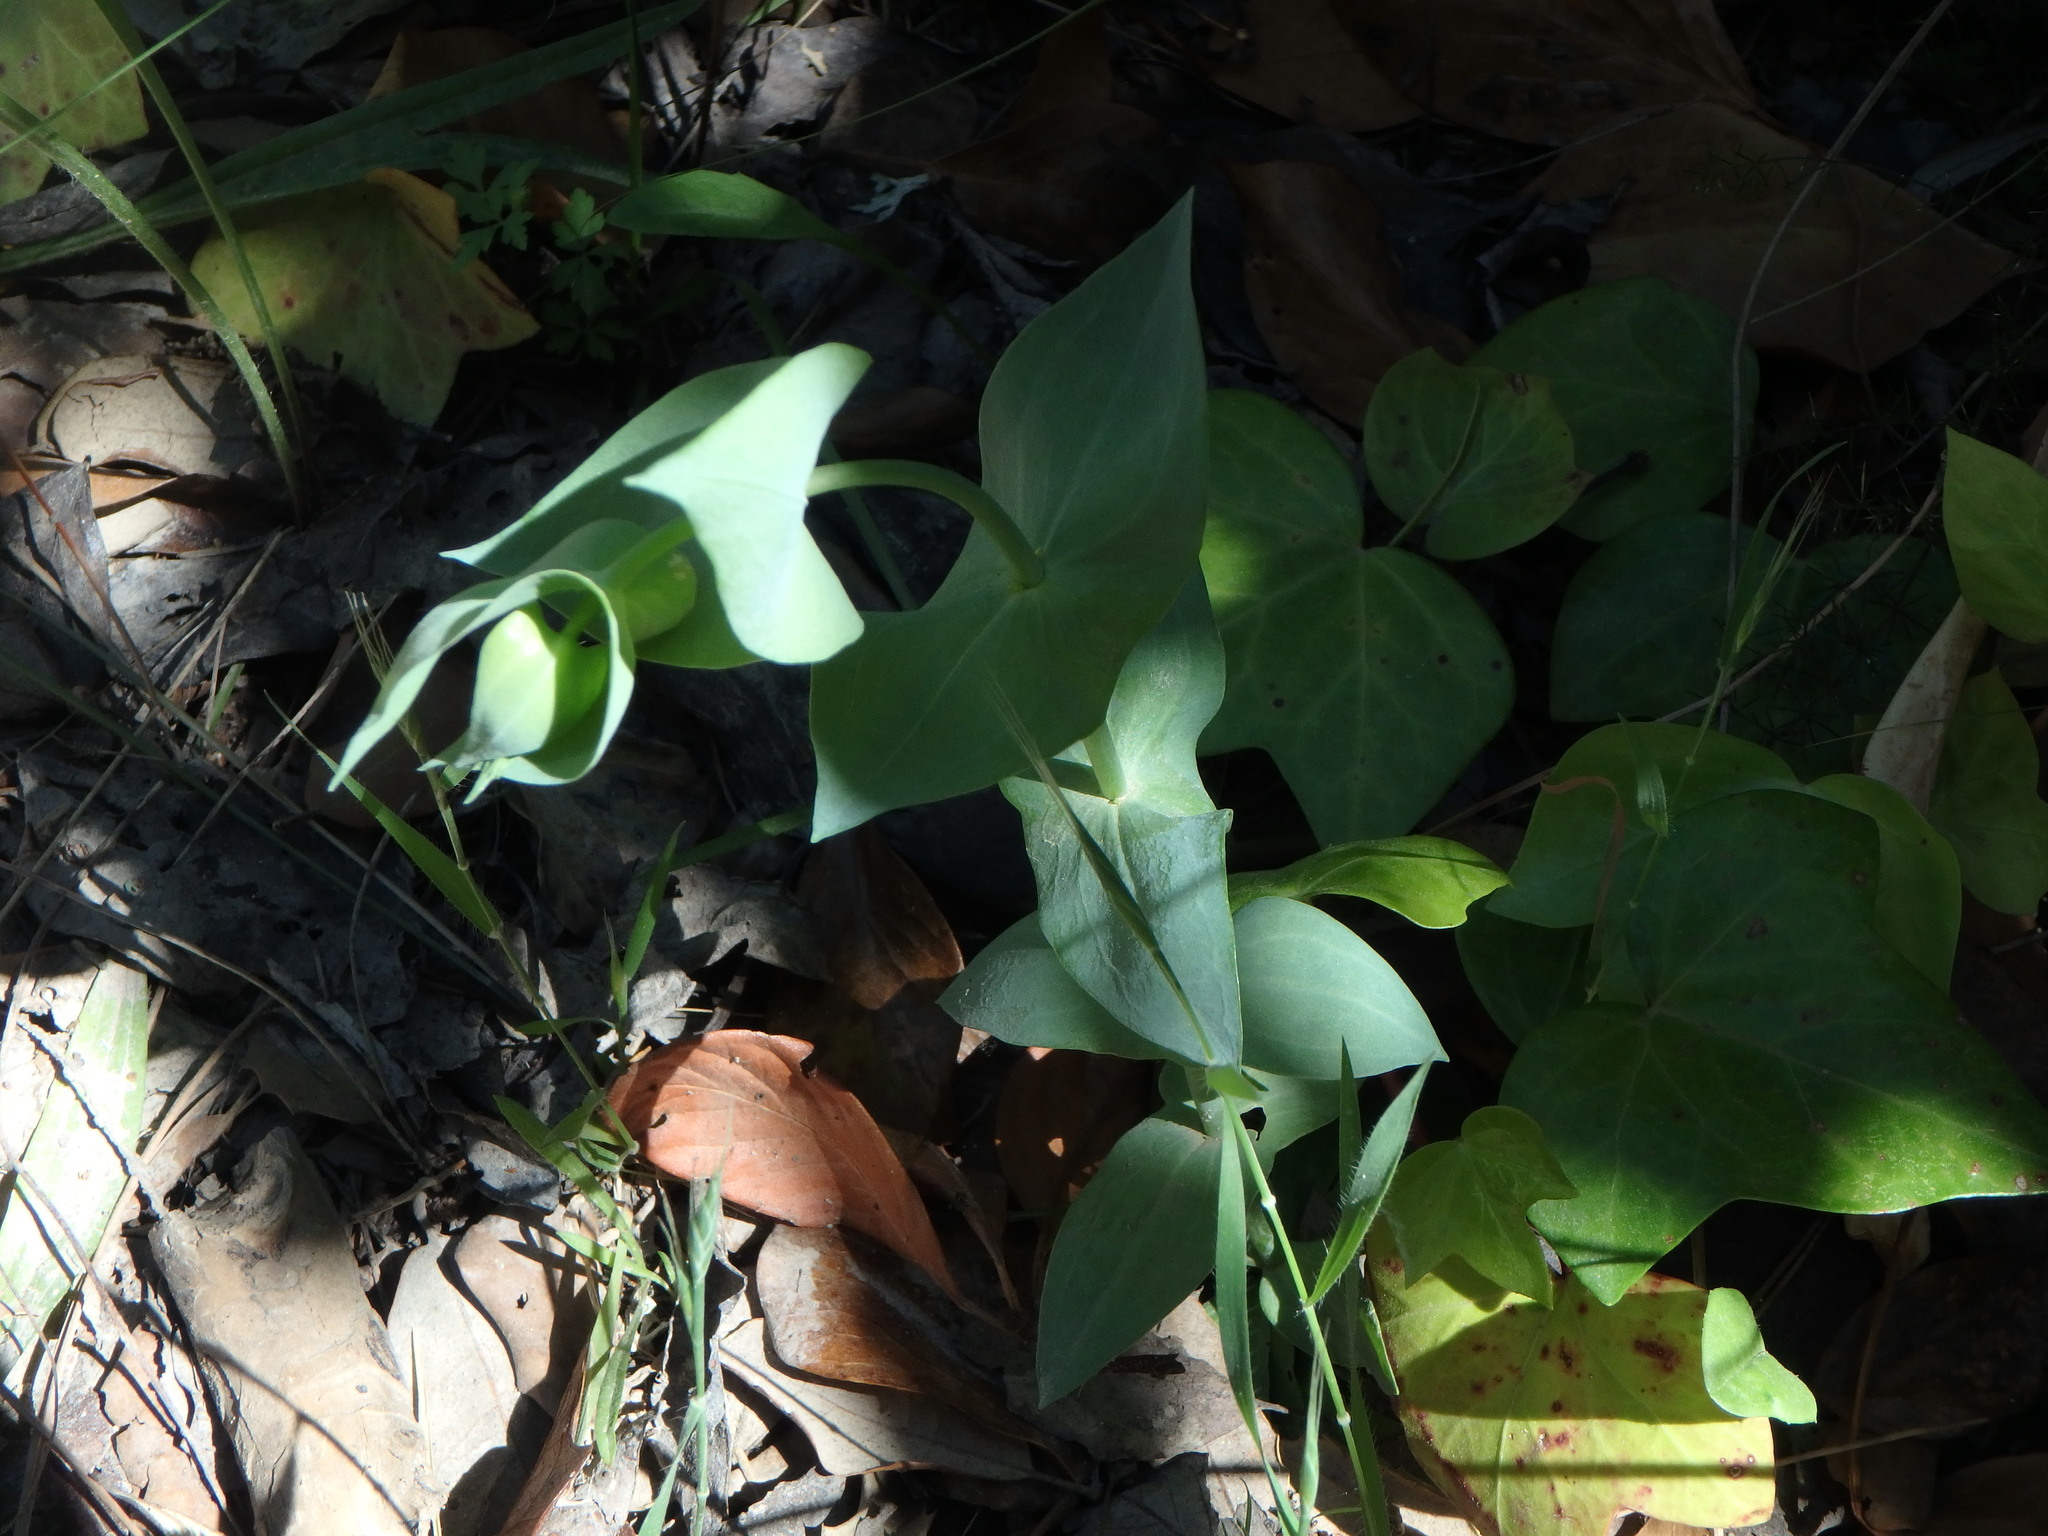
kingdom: Plantae
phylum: Tracheophyta
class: Magnoliopsida
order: Gentianales
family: Gentianaceae
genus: Blackstonia
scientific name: Blackstonia perfoliata
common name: Yellow-wort
